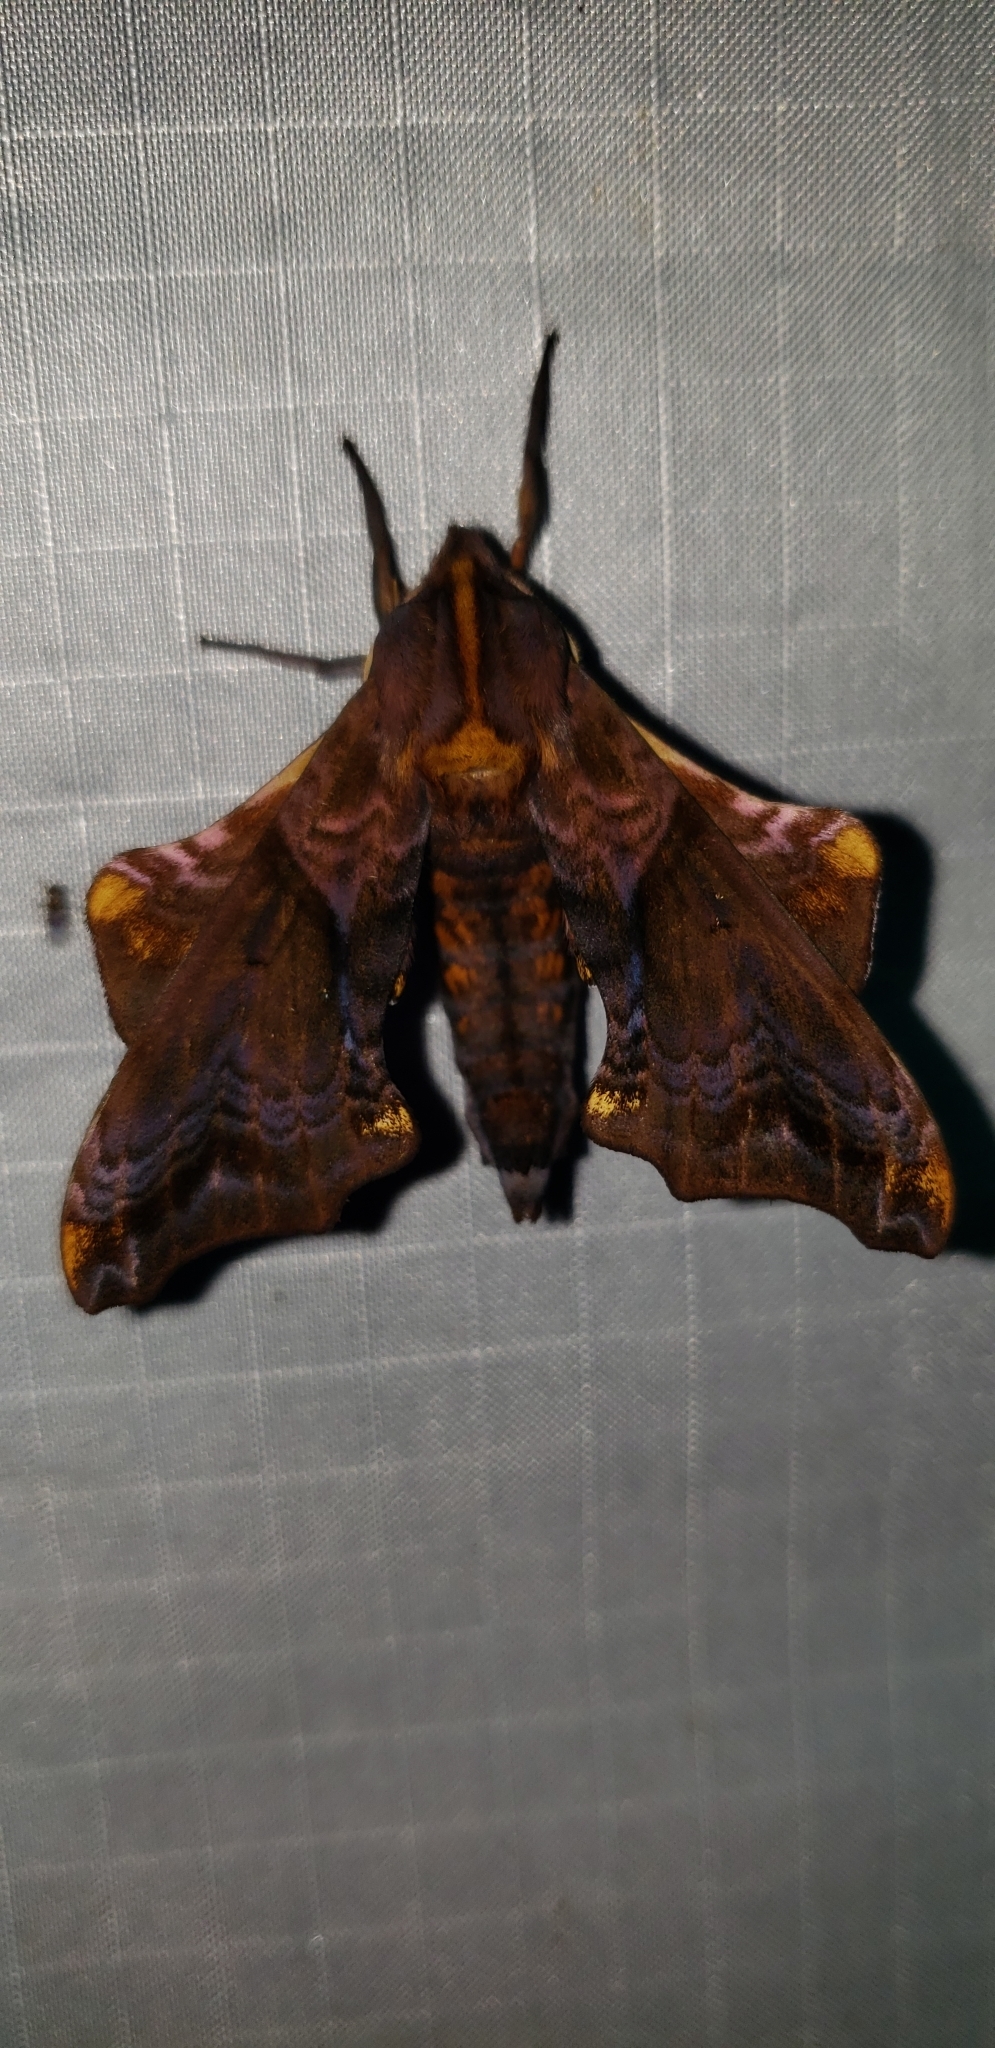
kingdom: Animalia
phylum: Arthropoda
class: Insecta
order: Lepidoptera
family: Sphingidae
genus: Paonias
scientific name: Paonias myops
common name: Small-eyed sphinx
